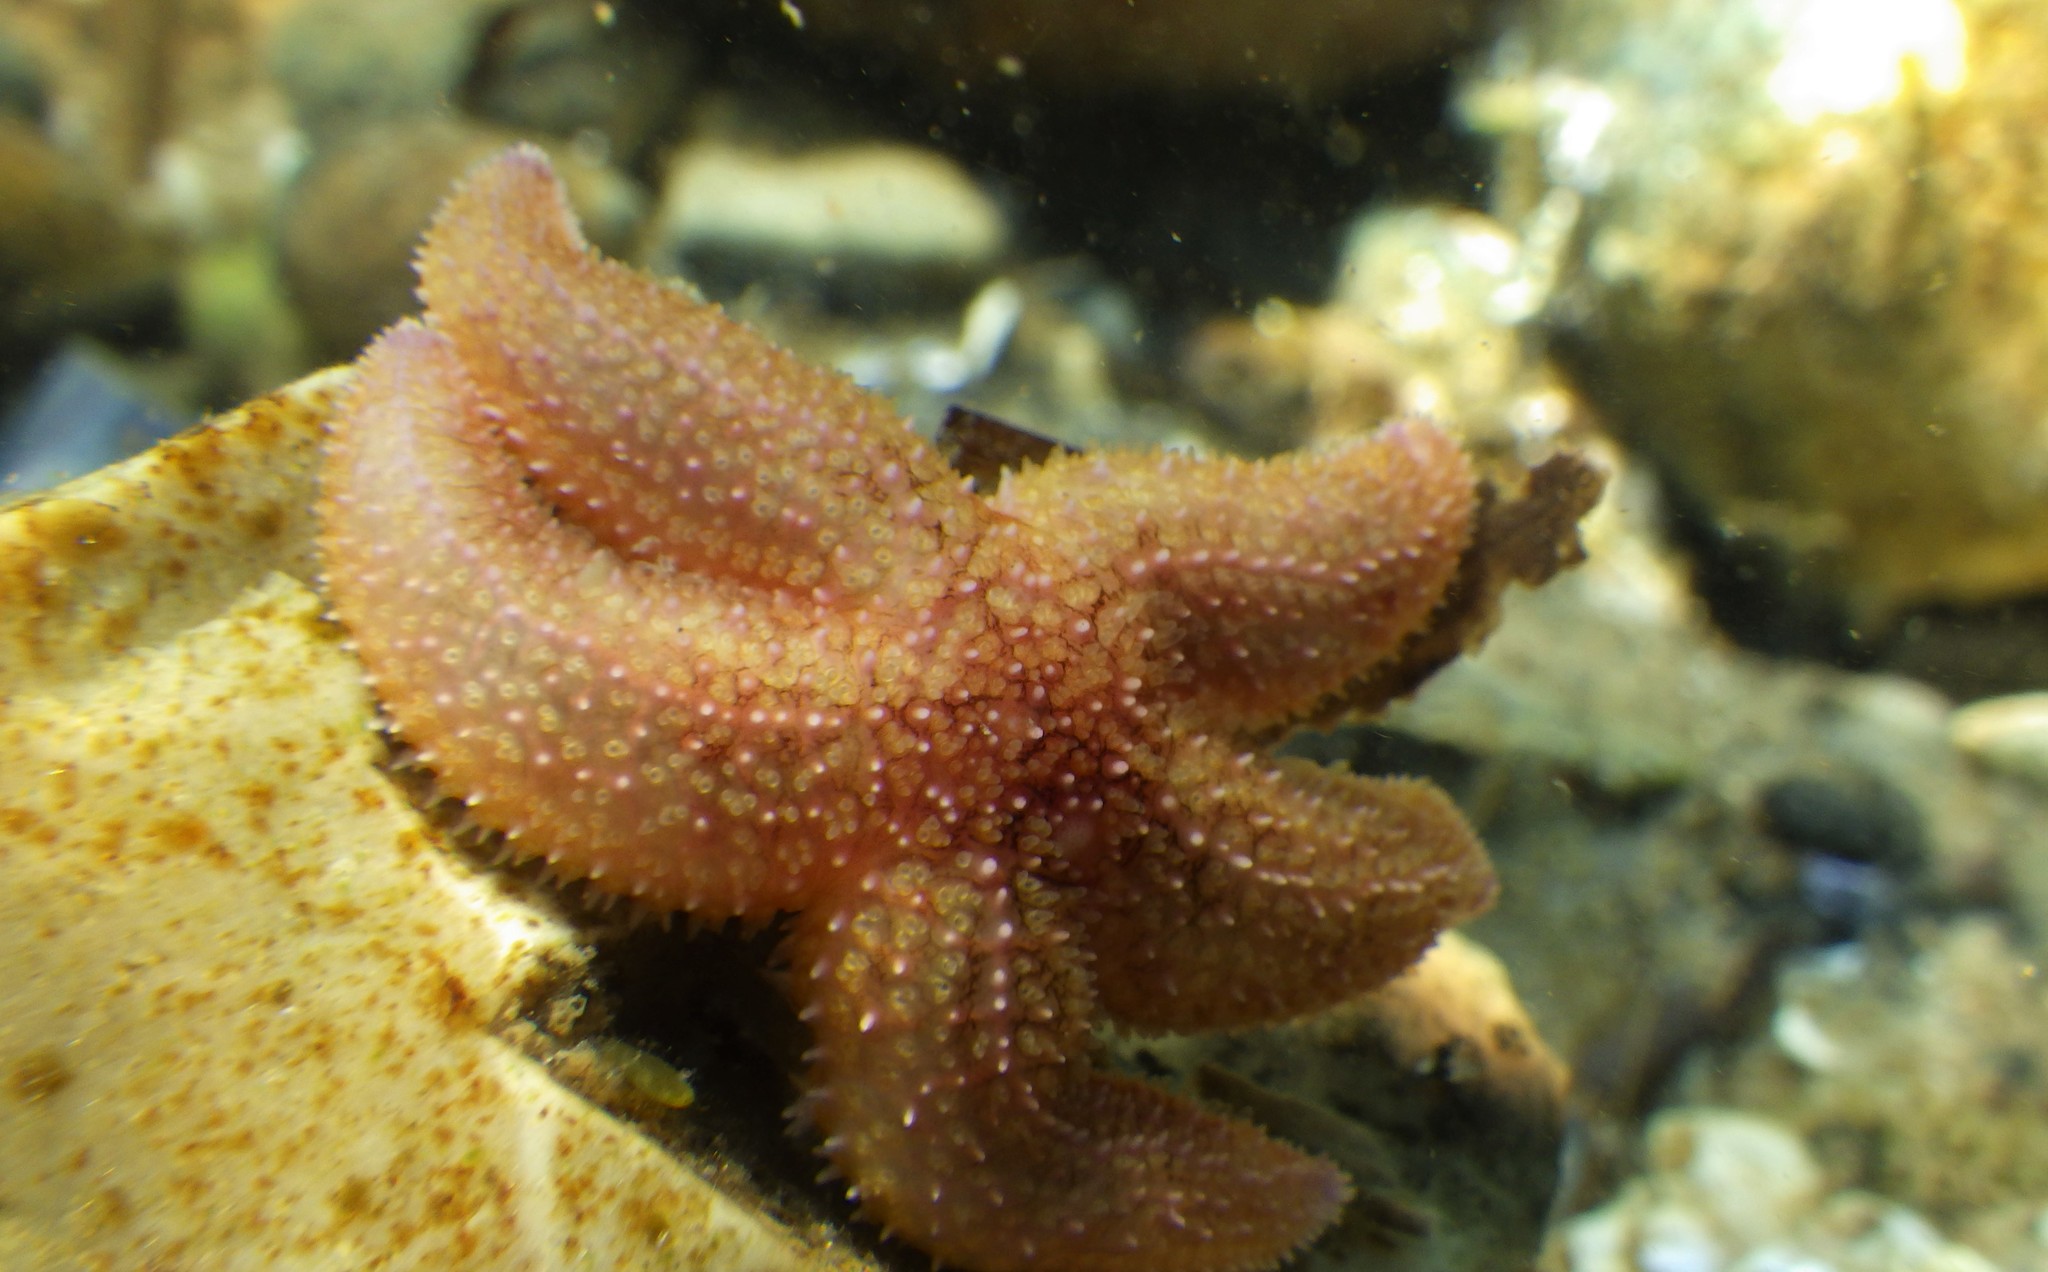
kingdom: Animalia
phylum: Echinodermata
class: Asteroidea
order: Forcipulatida
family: Asteriidae
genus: Asterias
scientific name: Asterias rubens
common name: Common starfish
